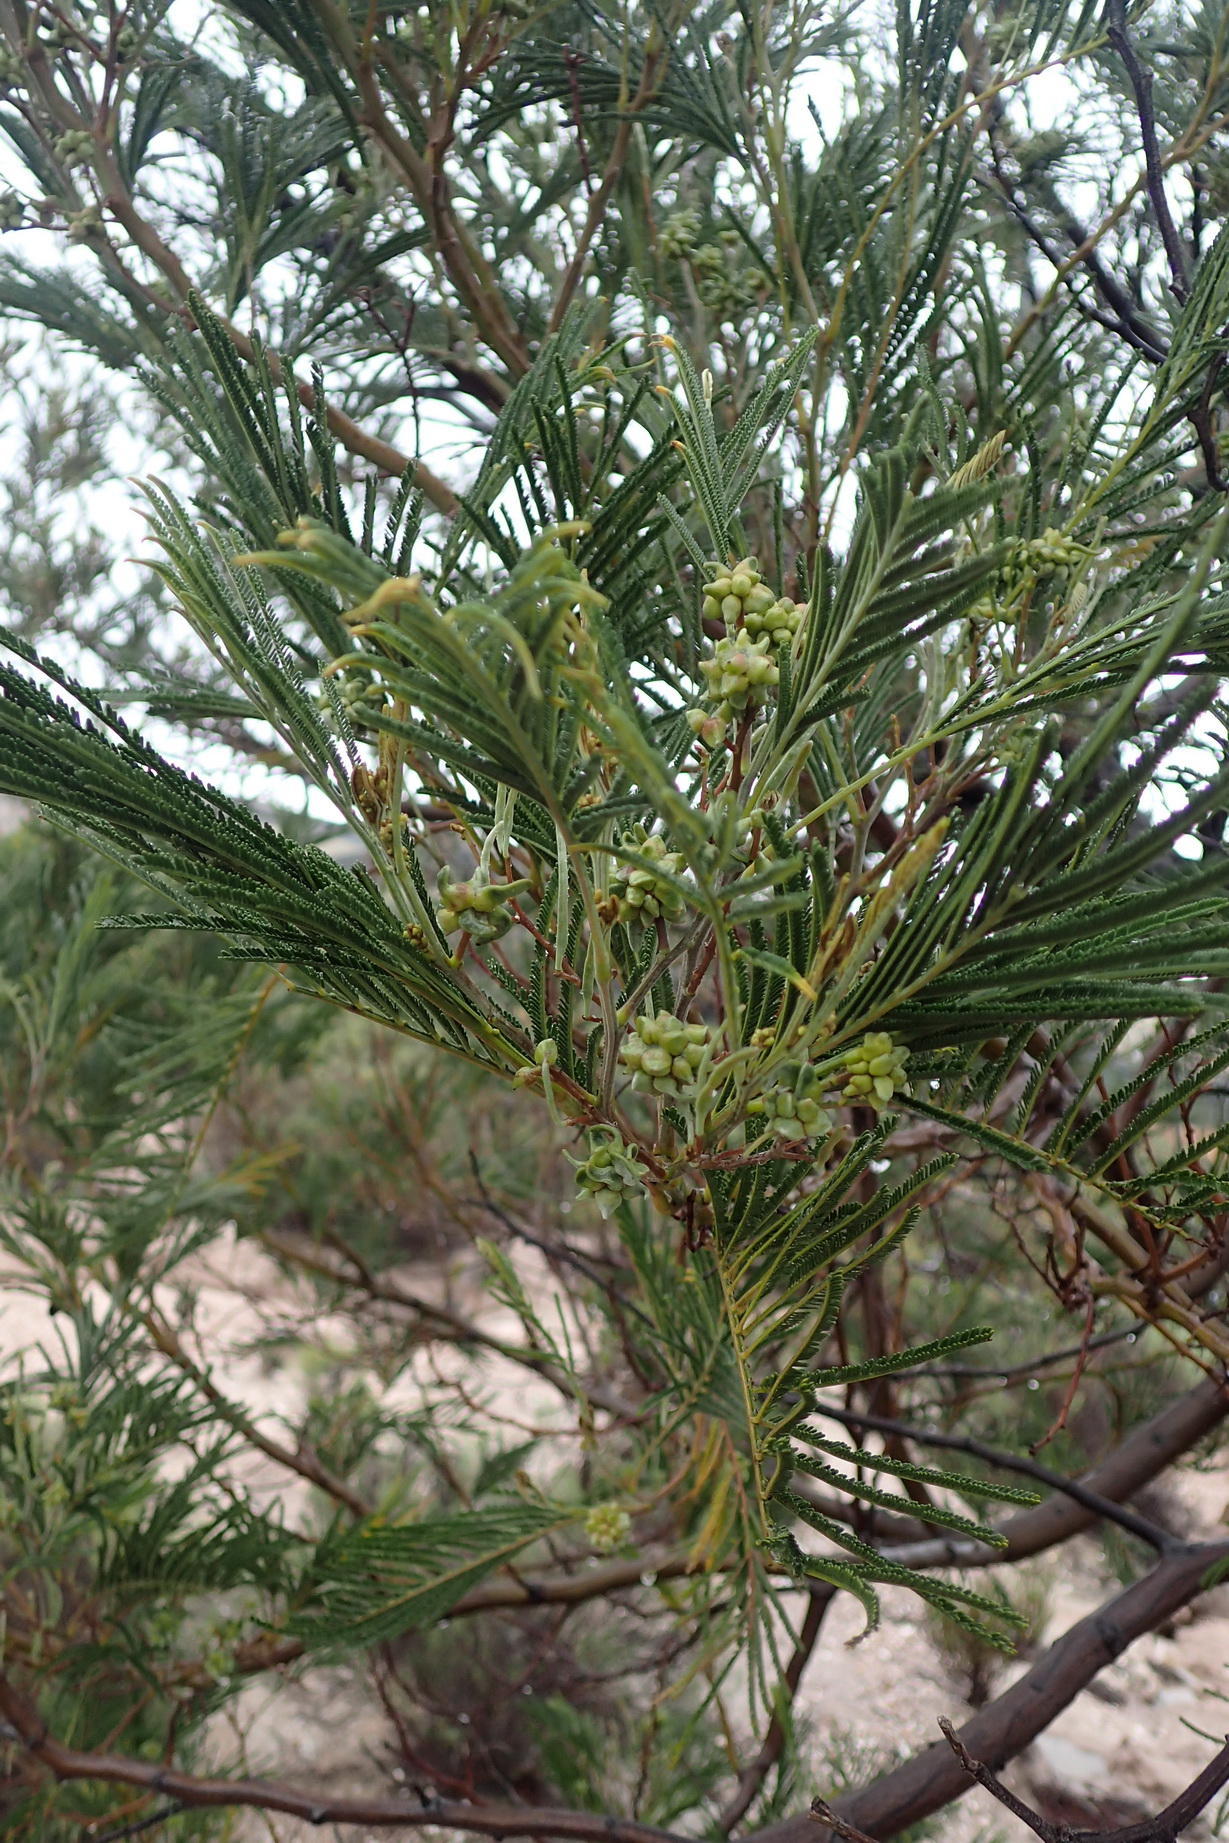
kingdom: Plantae
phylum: Tracheophyta
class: Magnoliopsida
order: Fabales
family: Fabaceae
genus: Acacia
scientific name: Acacia mearnsii
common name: Black wattle
